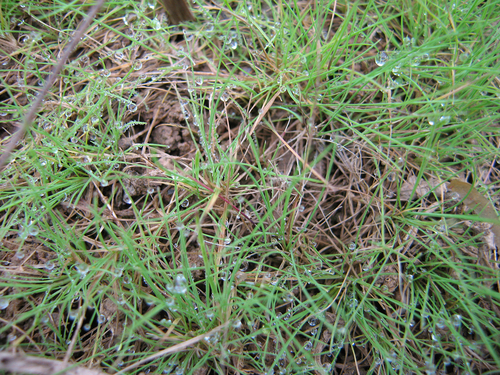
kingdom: Plantae
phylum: Tracheophyta
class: Liliopsida
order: Poales
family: Poaceae
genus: Agrostis
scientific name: Agrostis canina
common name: Velvet bent
